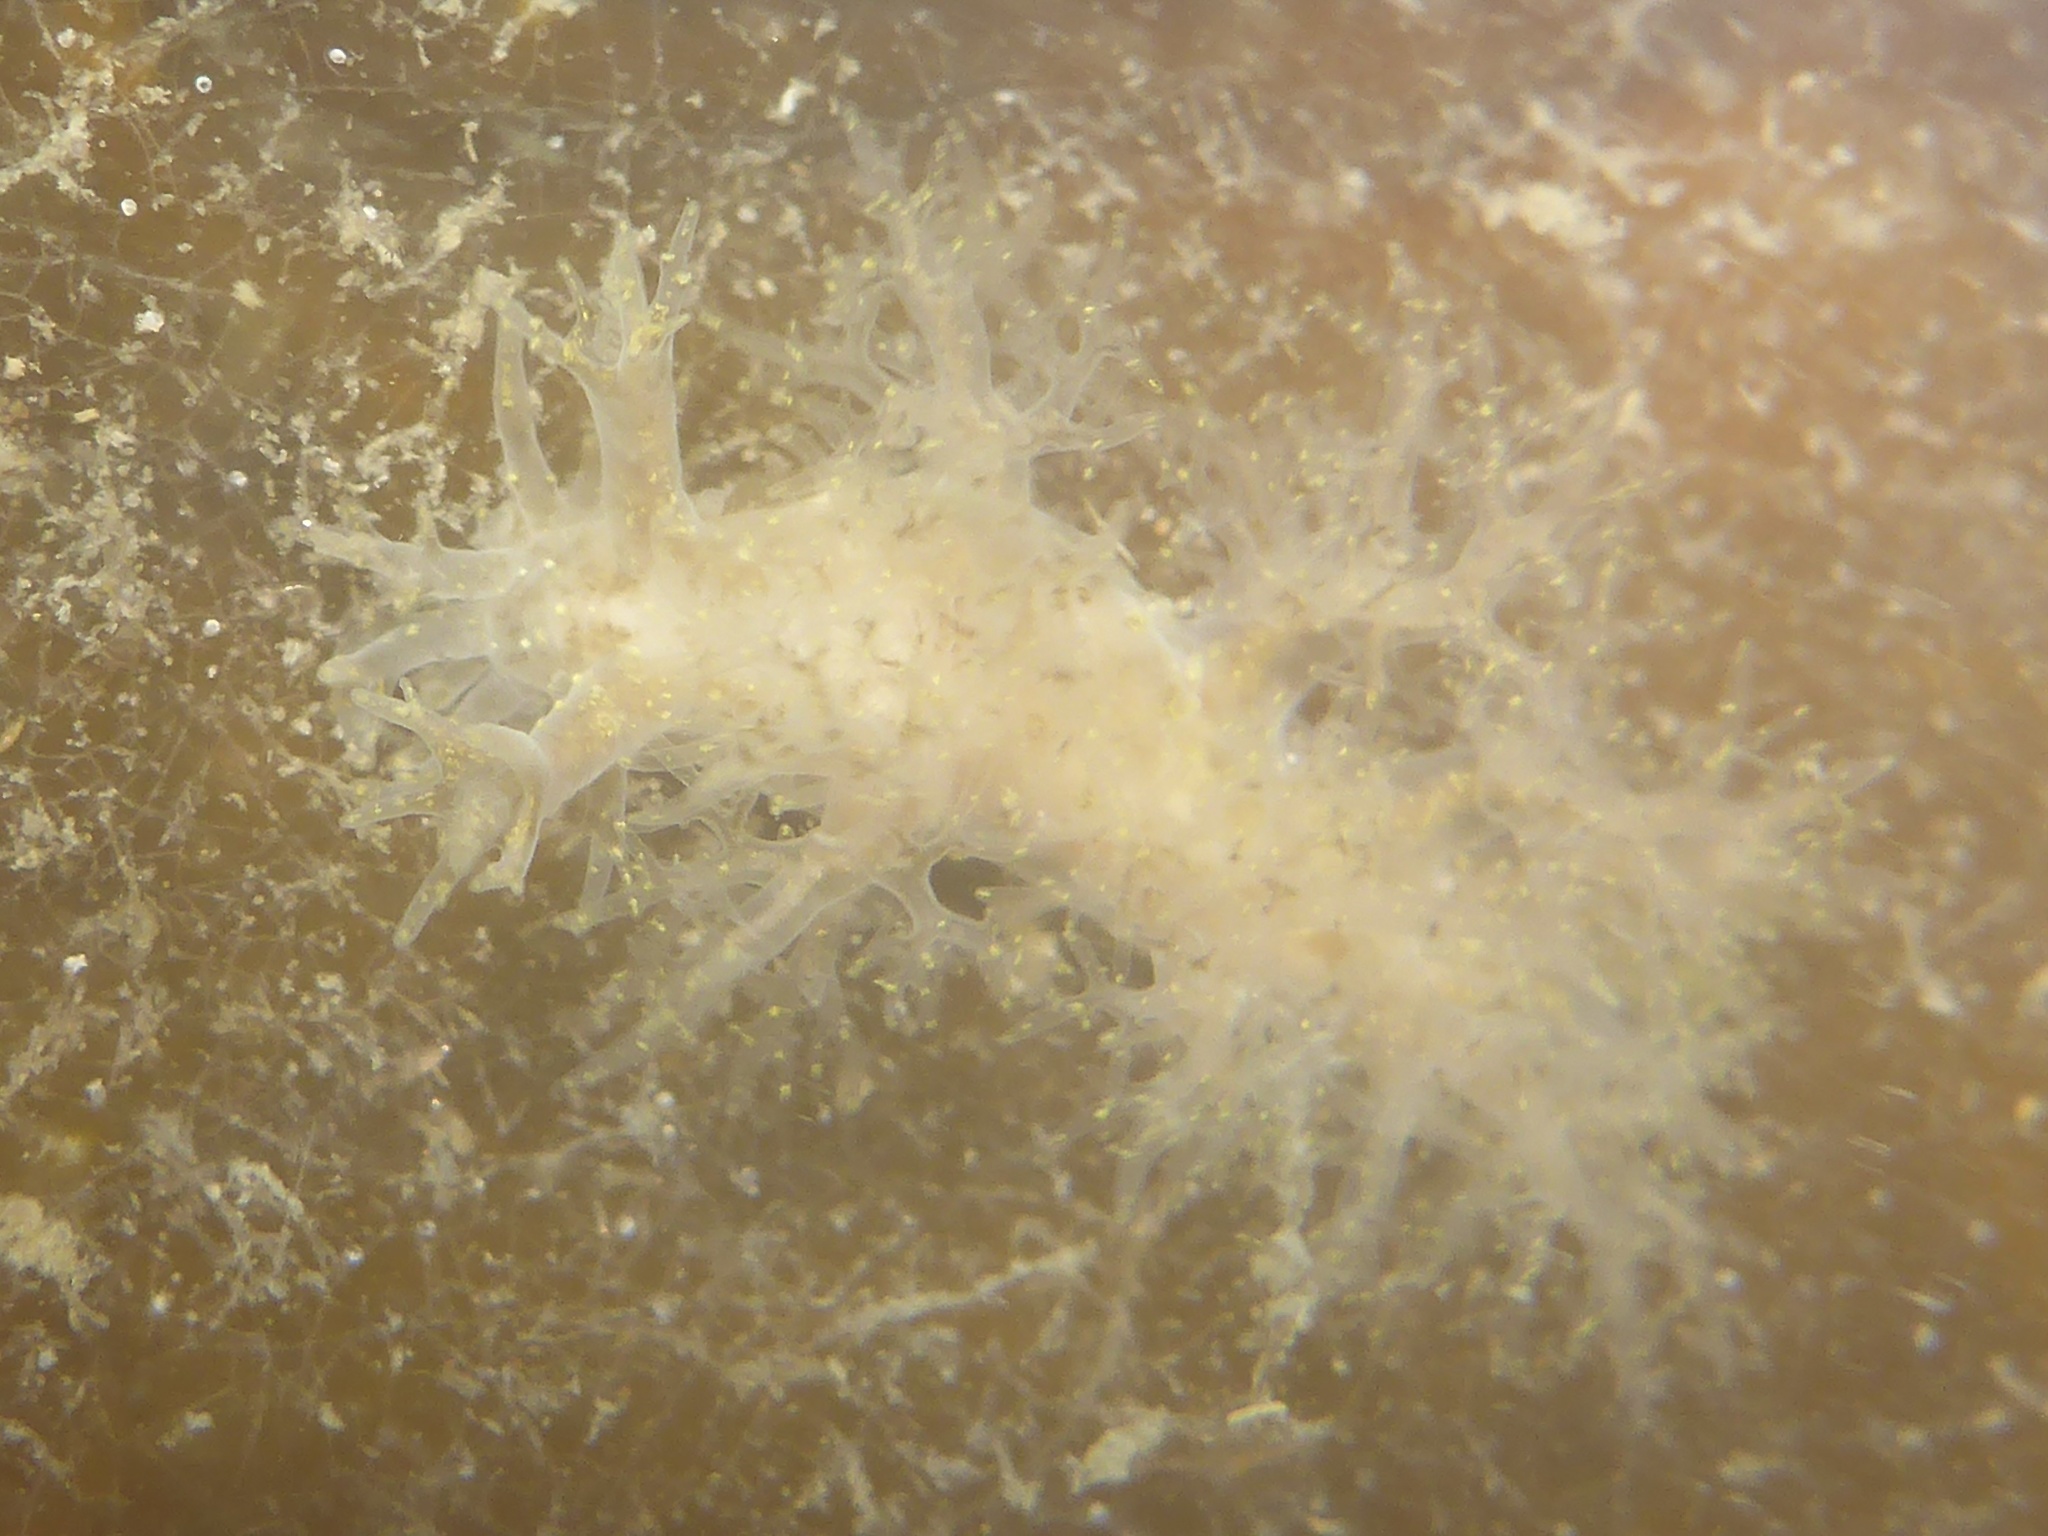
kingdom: Animalia
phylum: Mollusca
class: Gastropoda
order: Nudibranchia
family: Dendronotidae
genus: Dendronotus
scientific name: Dendronotus venustus
